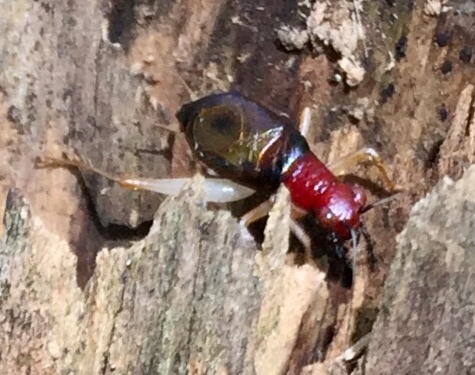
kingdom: Animalia
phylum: Arthropoda
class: Insecta
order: Orthoptera
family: Trigonidiidae
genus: Phyllopalpus
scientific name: Phyllopalpus pulchellus
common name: Handsome trig
